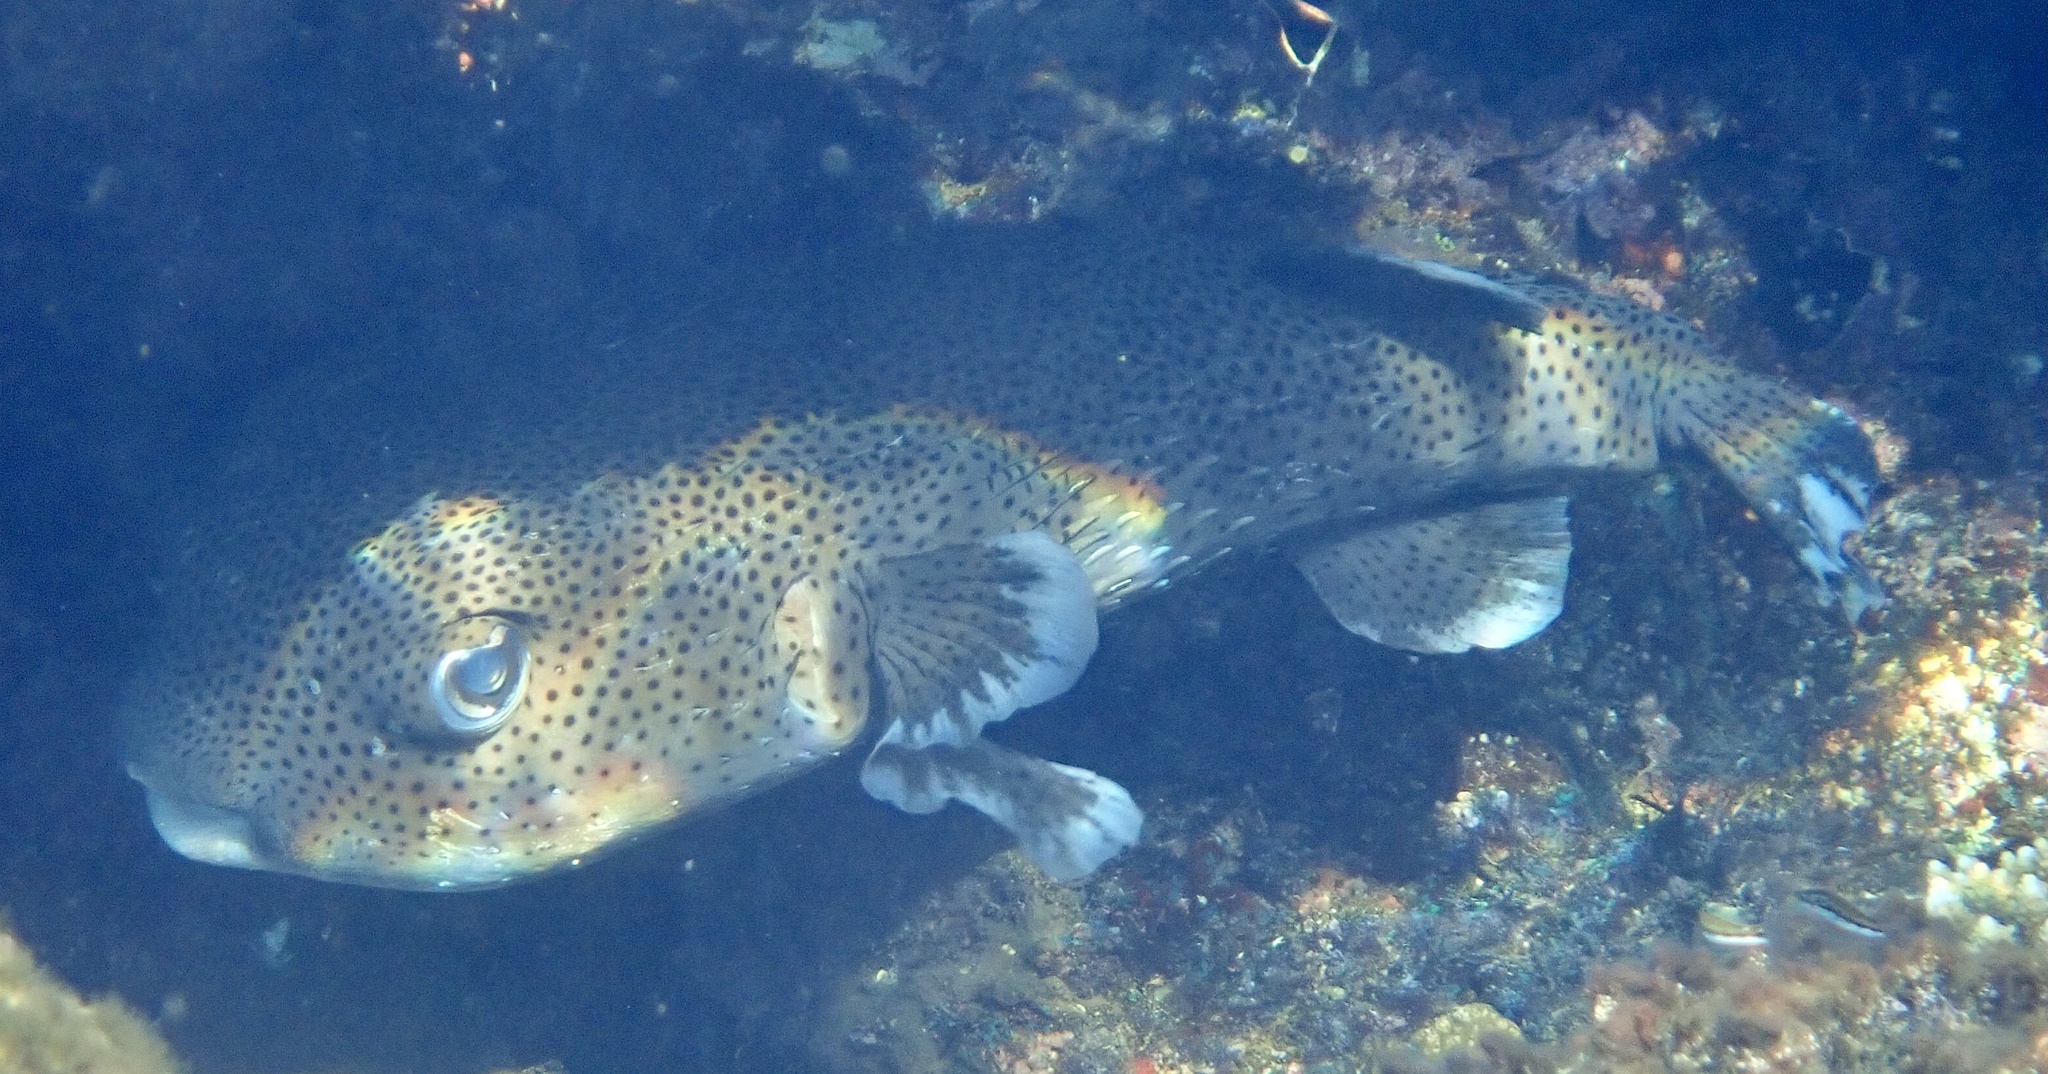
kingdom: Animalia
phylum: Chordata
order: Tetraodontiformes
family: Diodontidae
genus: Diodon
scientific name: Diodon hystrix
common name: Giant porcupinefish
